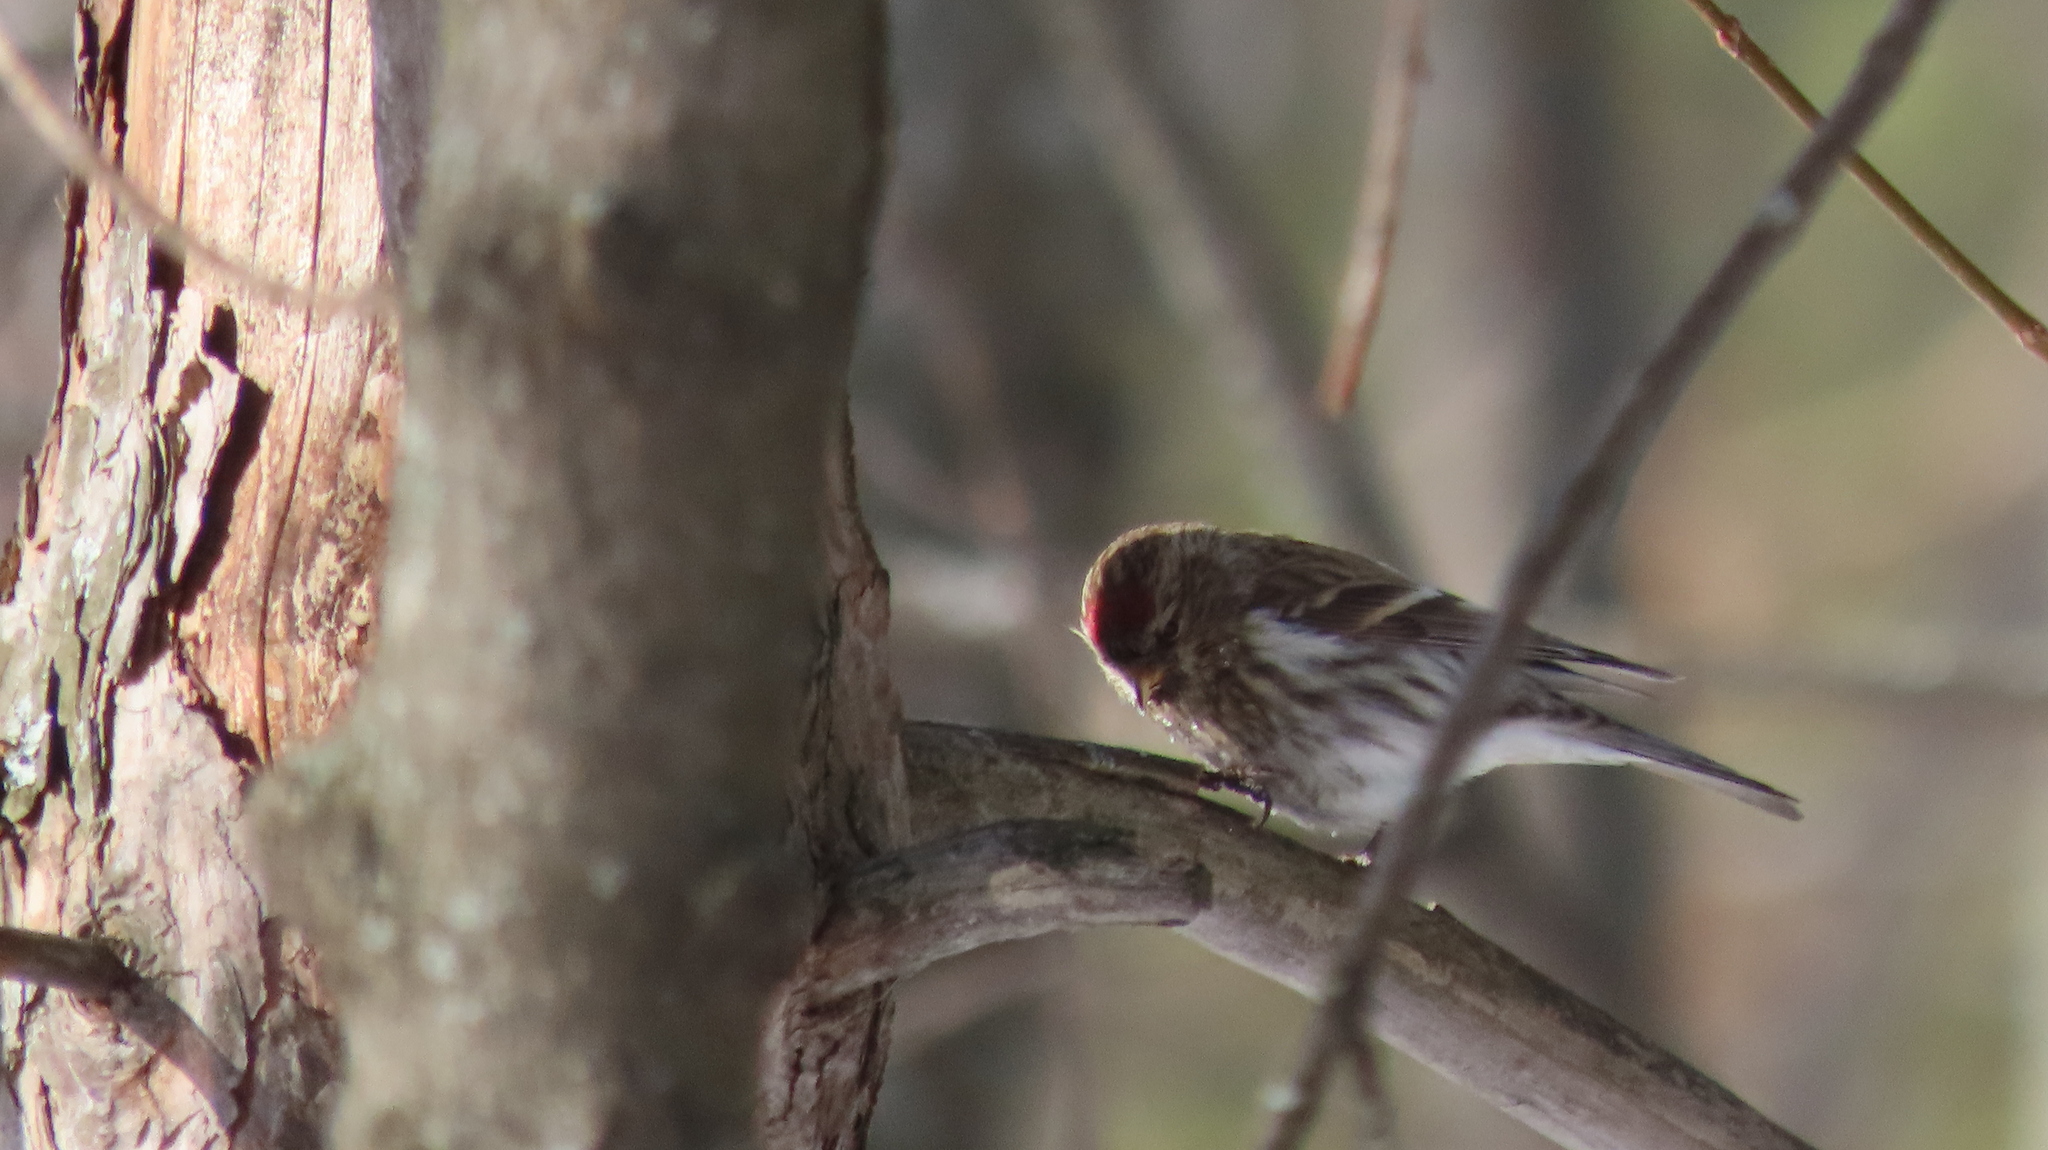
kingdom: Animalia
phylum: Chordata
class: Aves
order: Passeriformes
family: Fringillidae
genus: Acanthis
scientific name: Acanthis flammea
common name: Common redpoll
